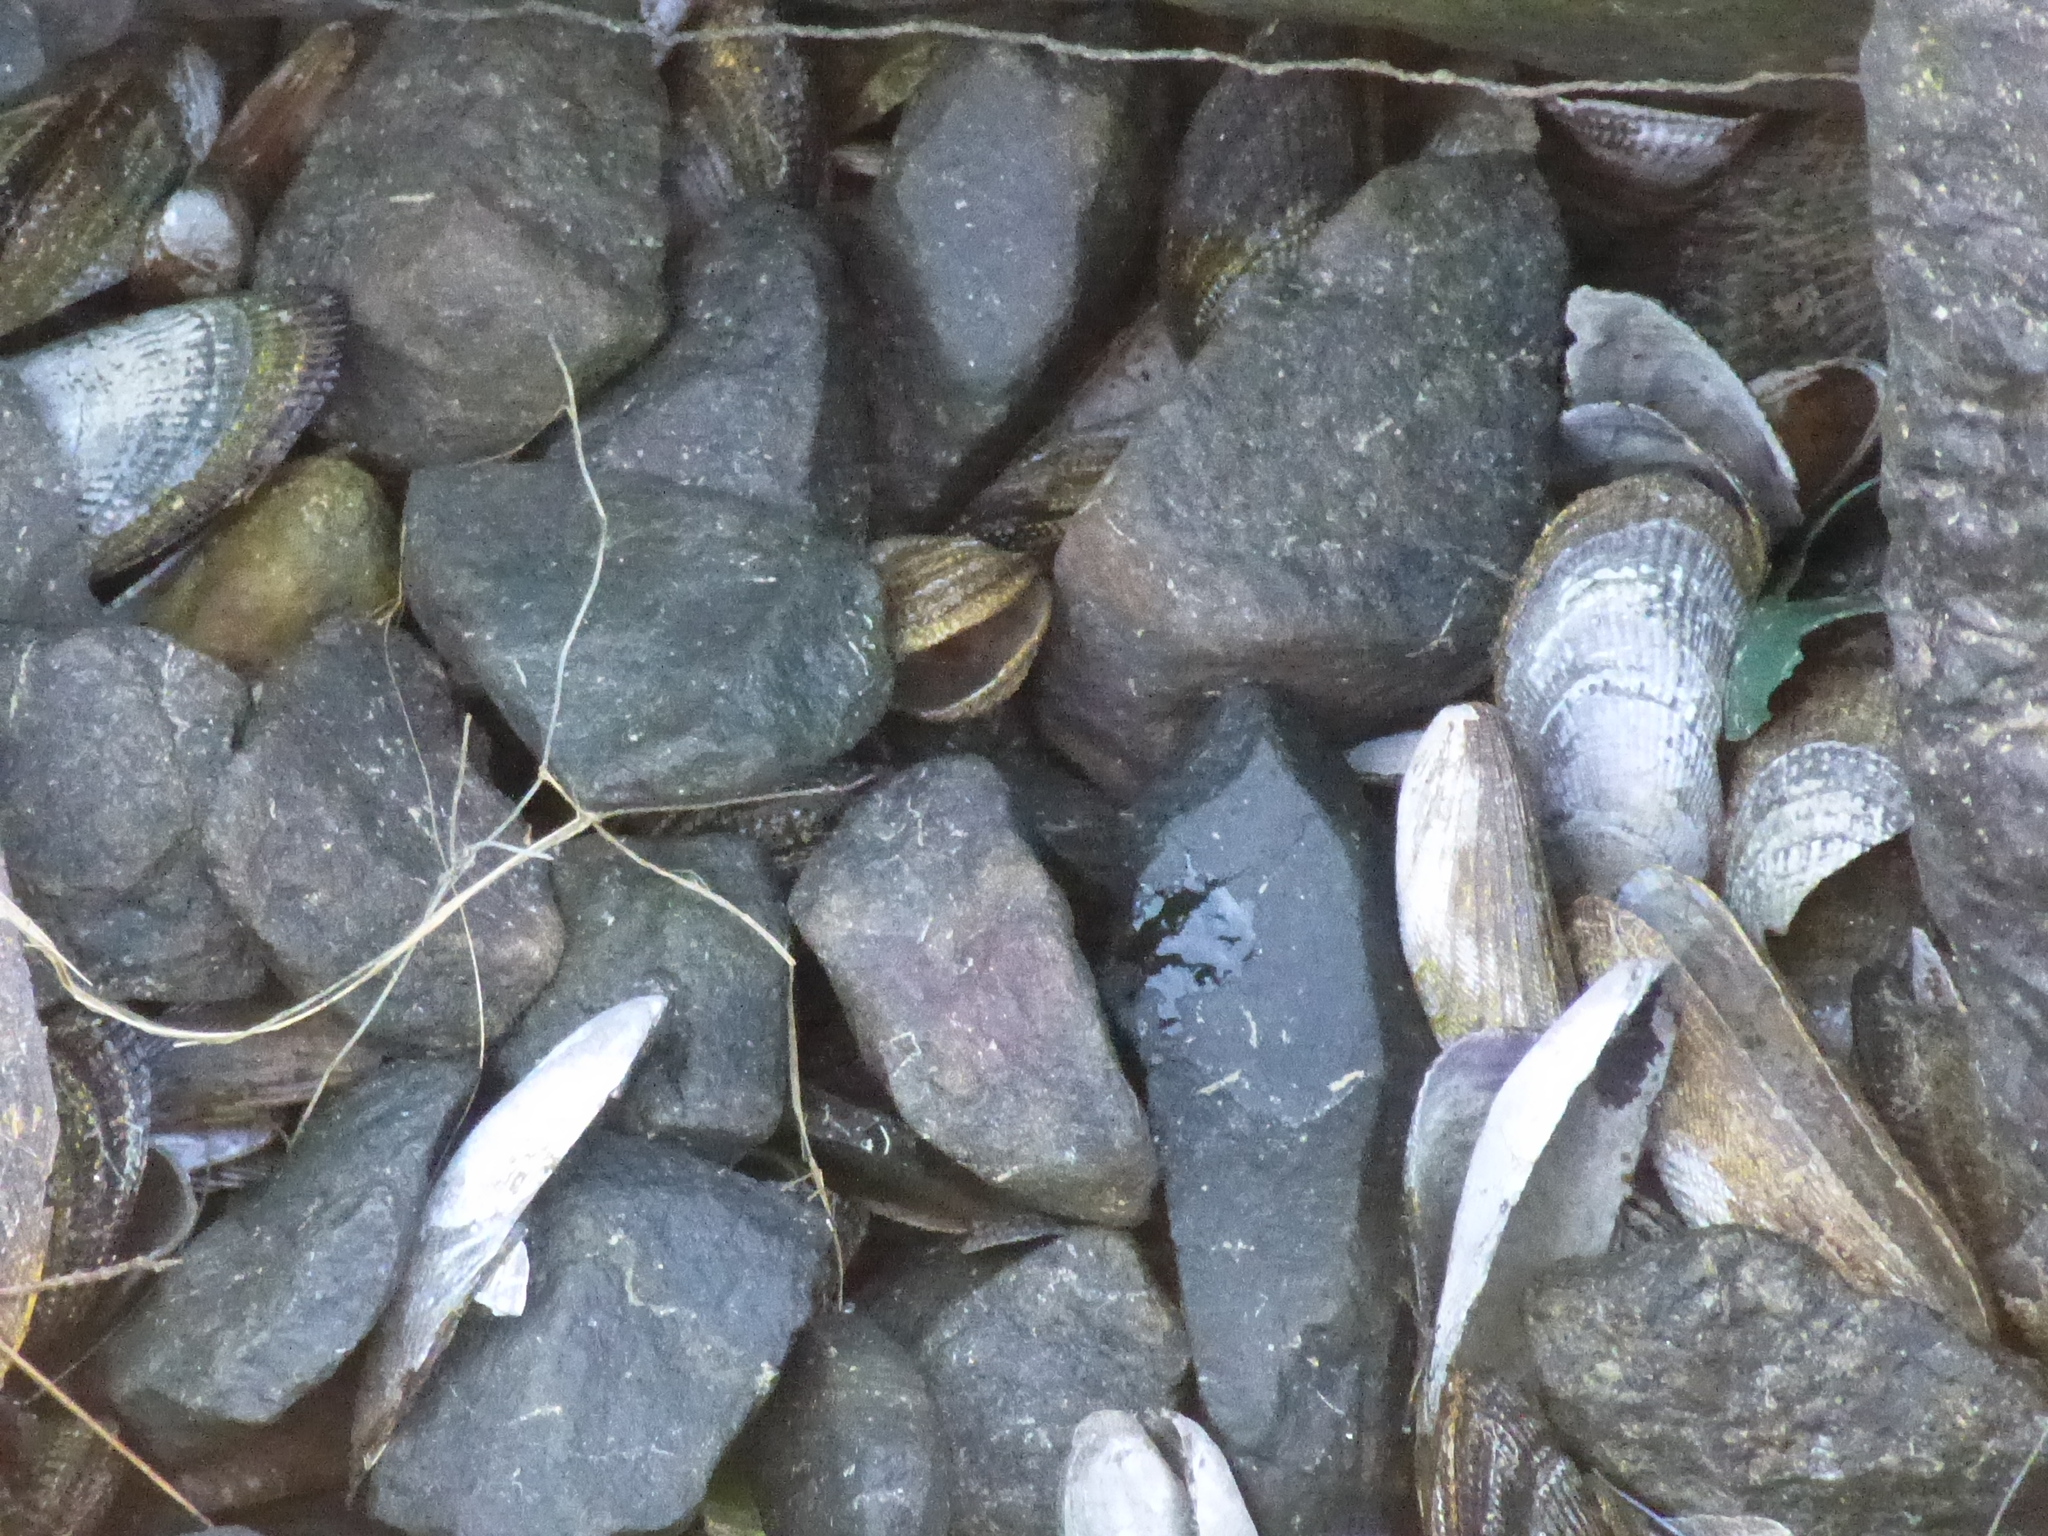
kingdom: Animalia
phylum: Mollusca
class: Bivalvia
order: Mytilida
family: Mytilidae
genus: Geukensia
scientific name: Geukensia demissa
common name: Ribbed mussel
